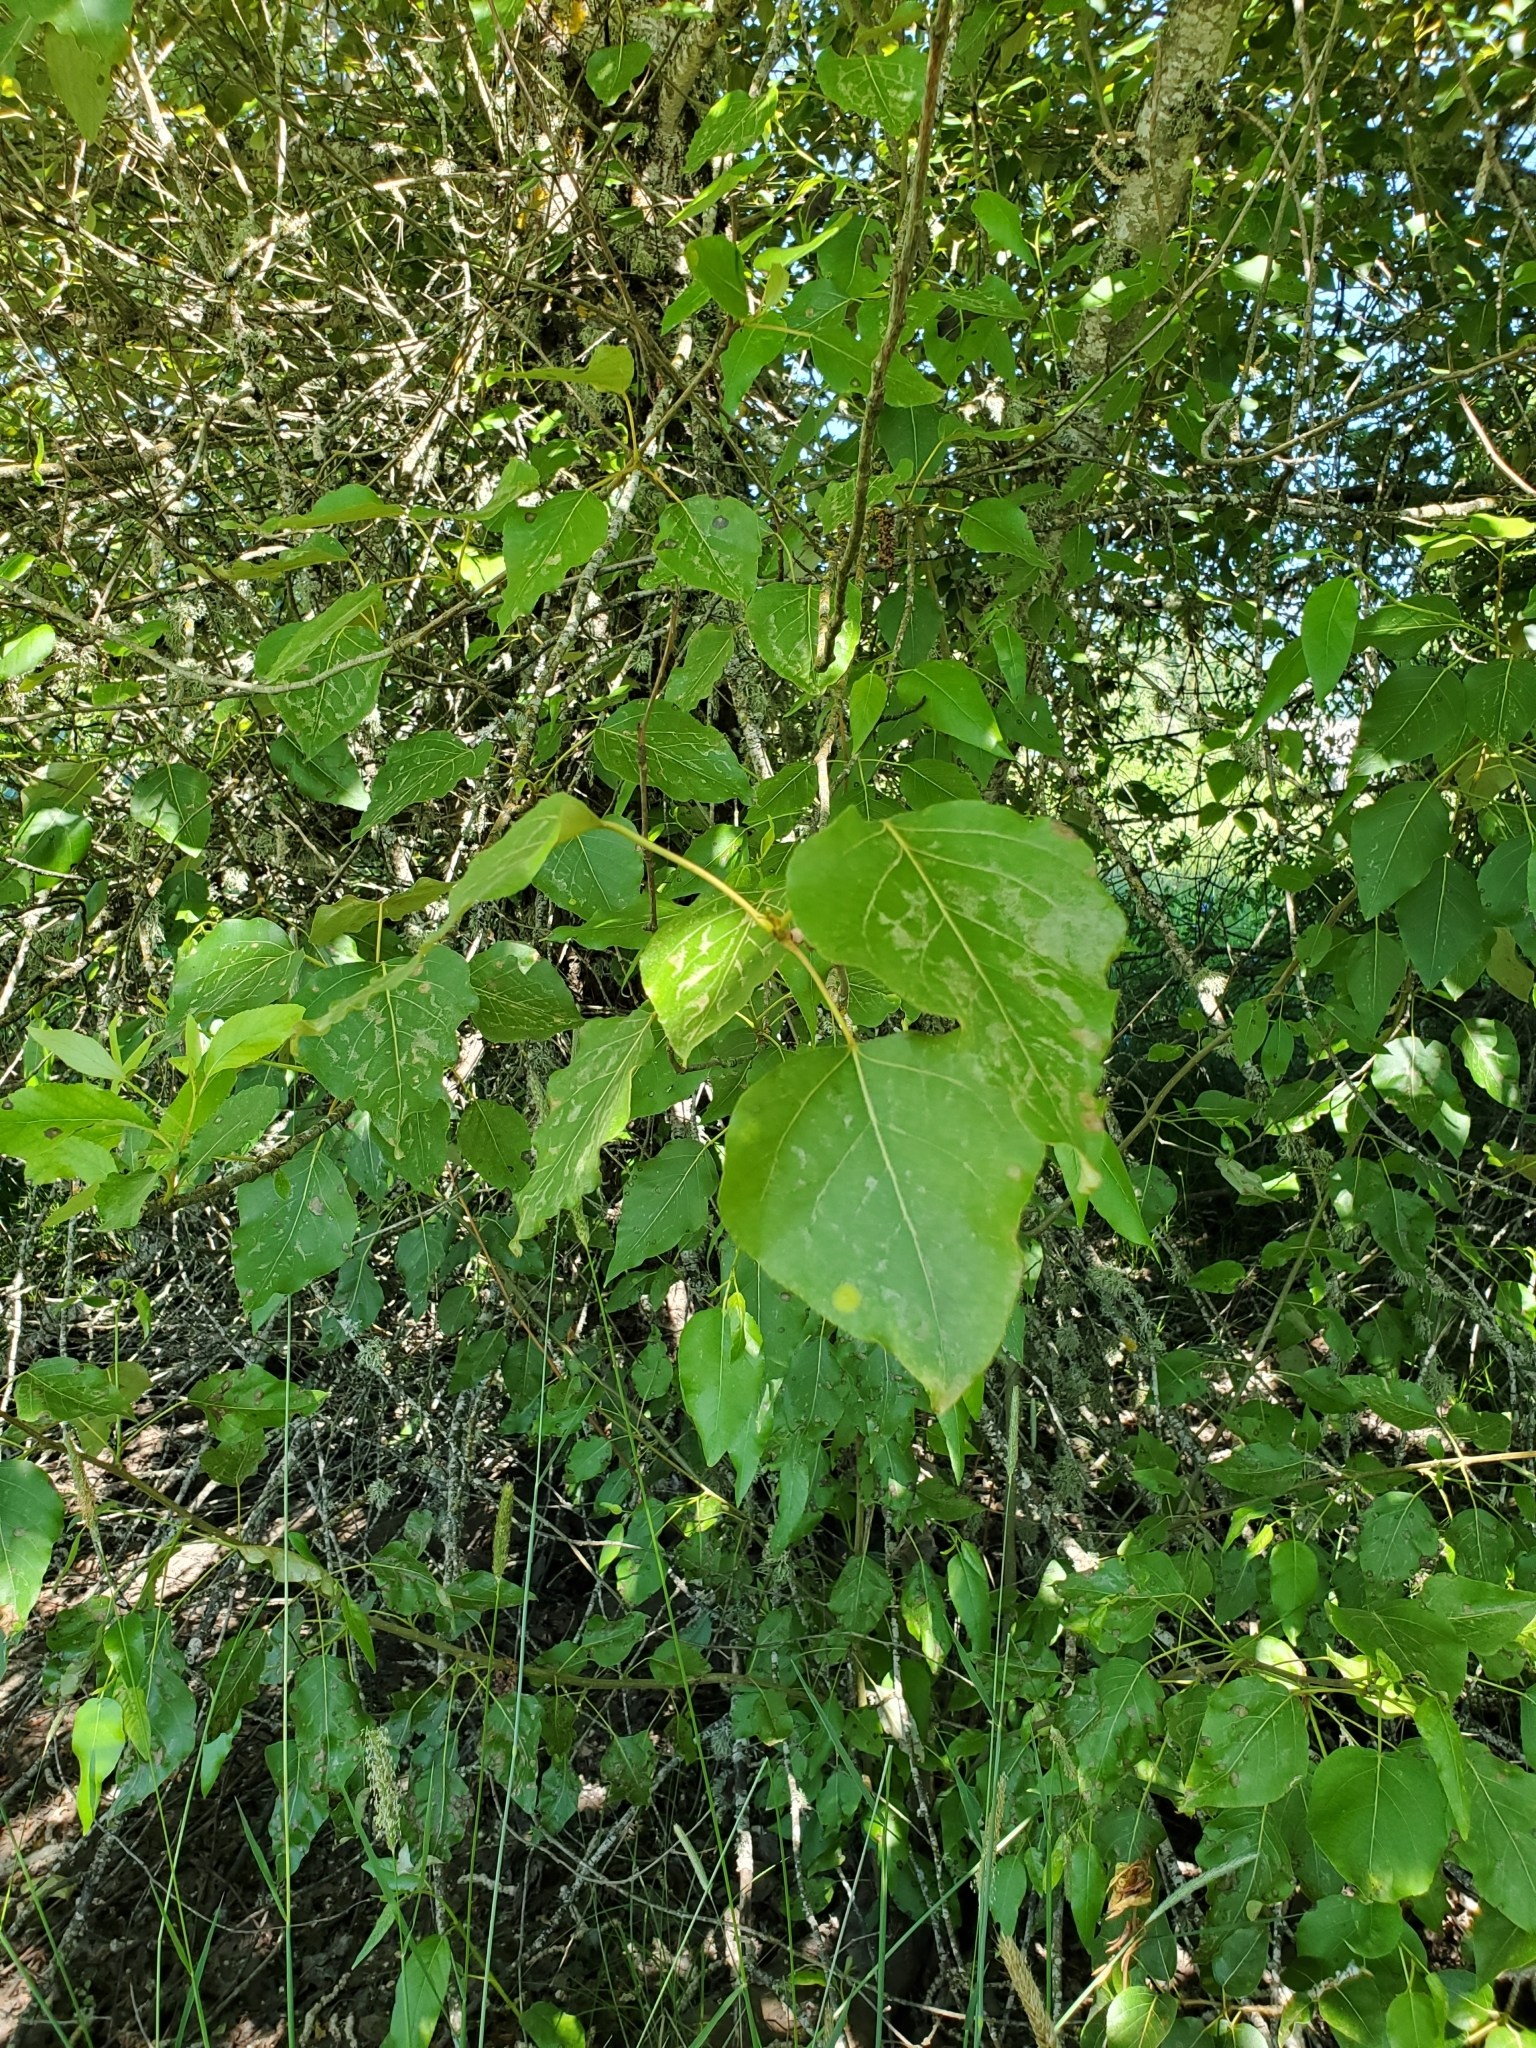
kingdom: Plantae
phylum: Tracheophyta
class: Magnoliopsida
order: Malpighiales
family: Salicaceae
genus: Populus
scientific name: Populus trichocarpa
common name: Black cottonwood
